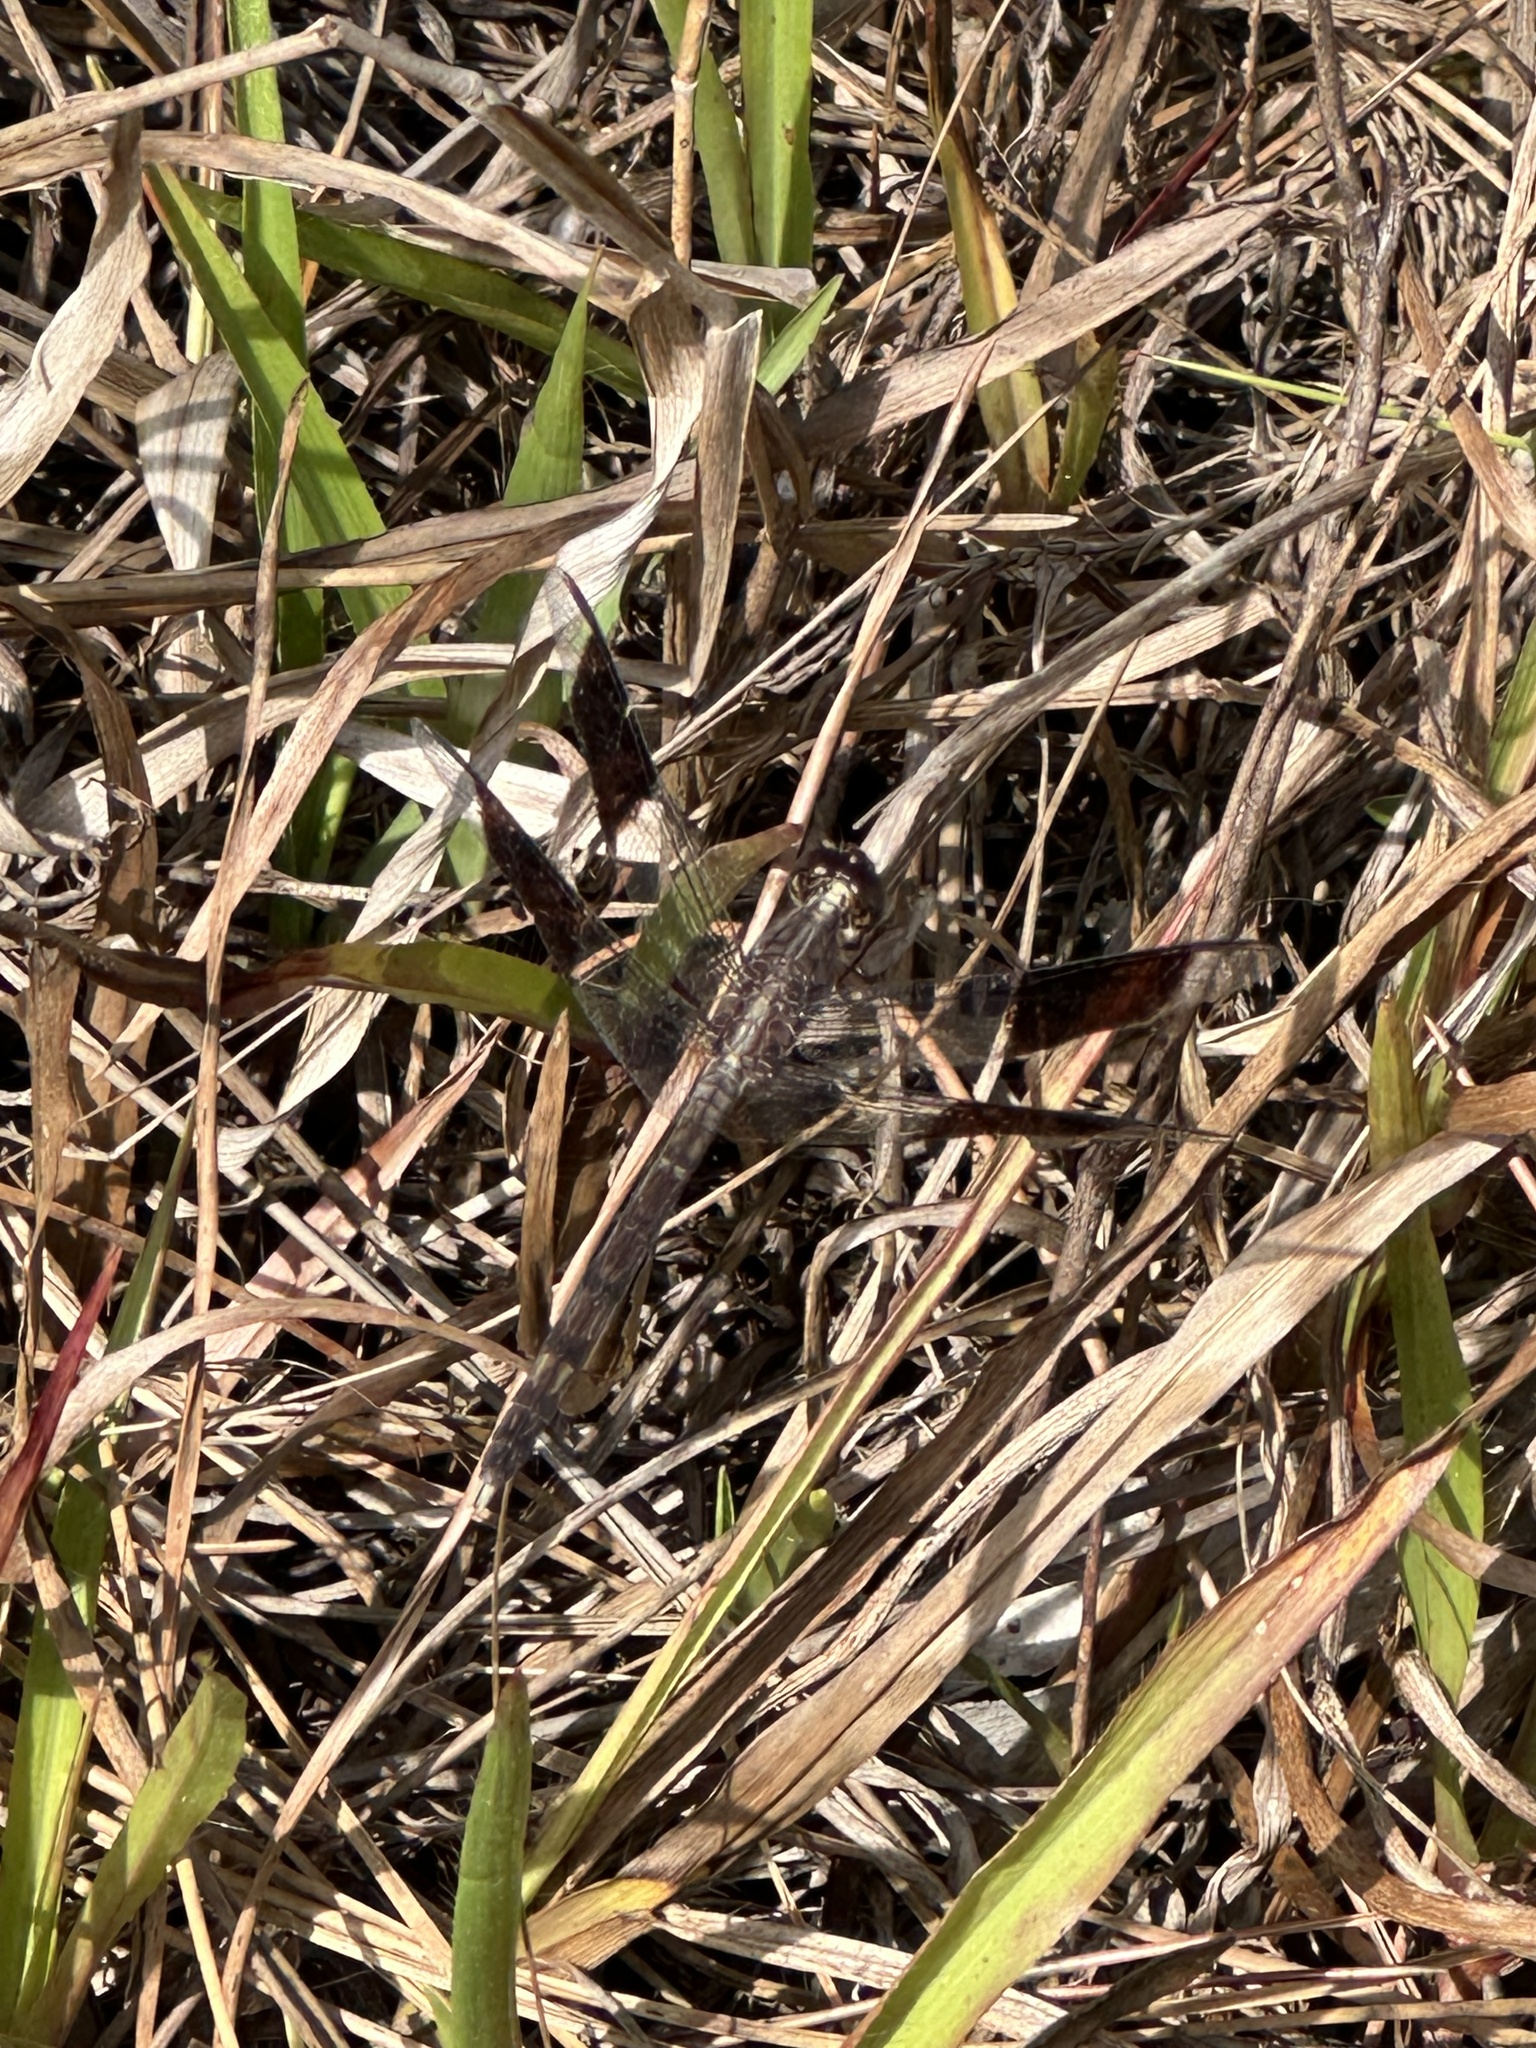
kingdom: Animalia
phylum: Arthropoda
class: Insecta
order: Odonata
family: Libellulidae
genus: Erythrodiplax
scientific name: Erythrodiplax umbrata
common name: Band-winged dragonlet
